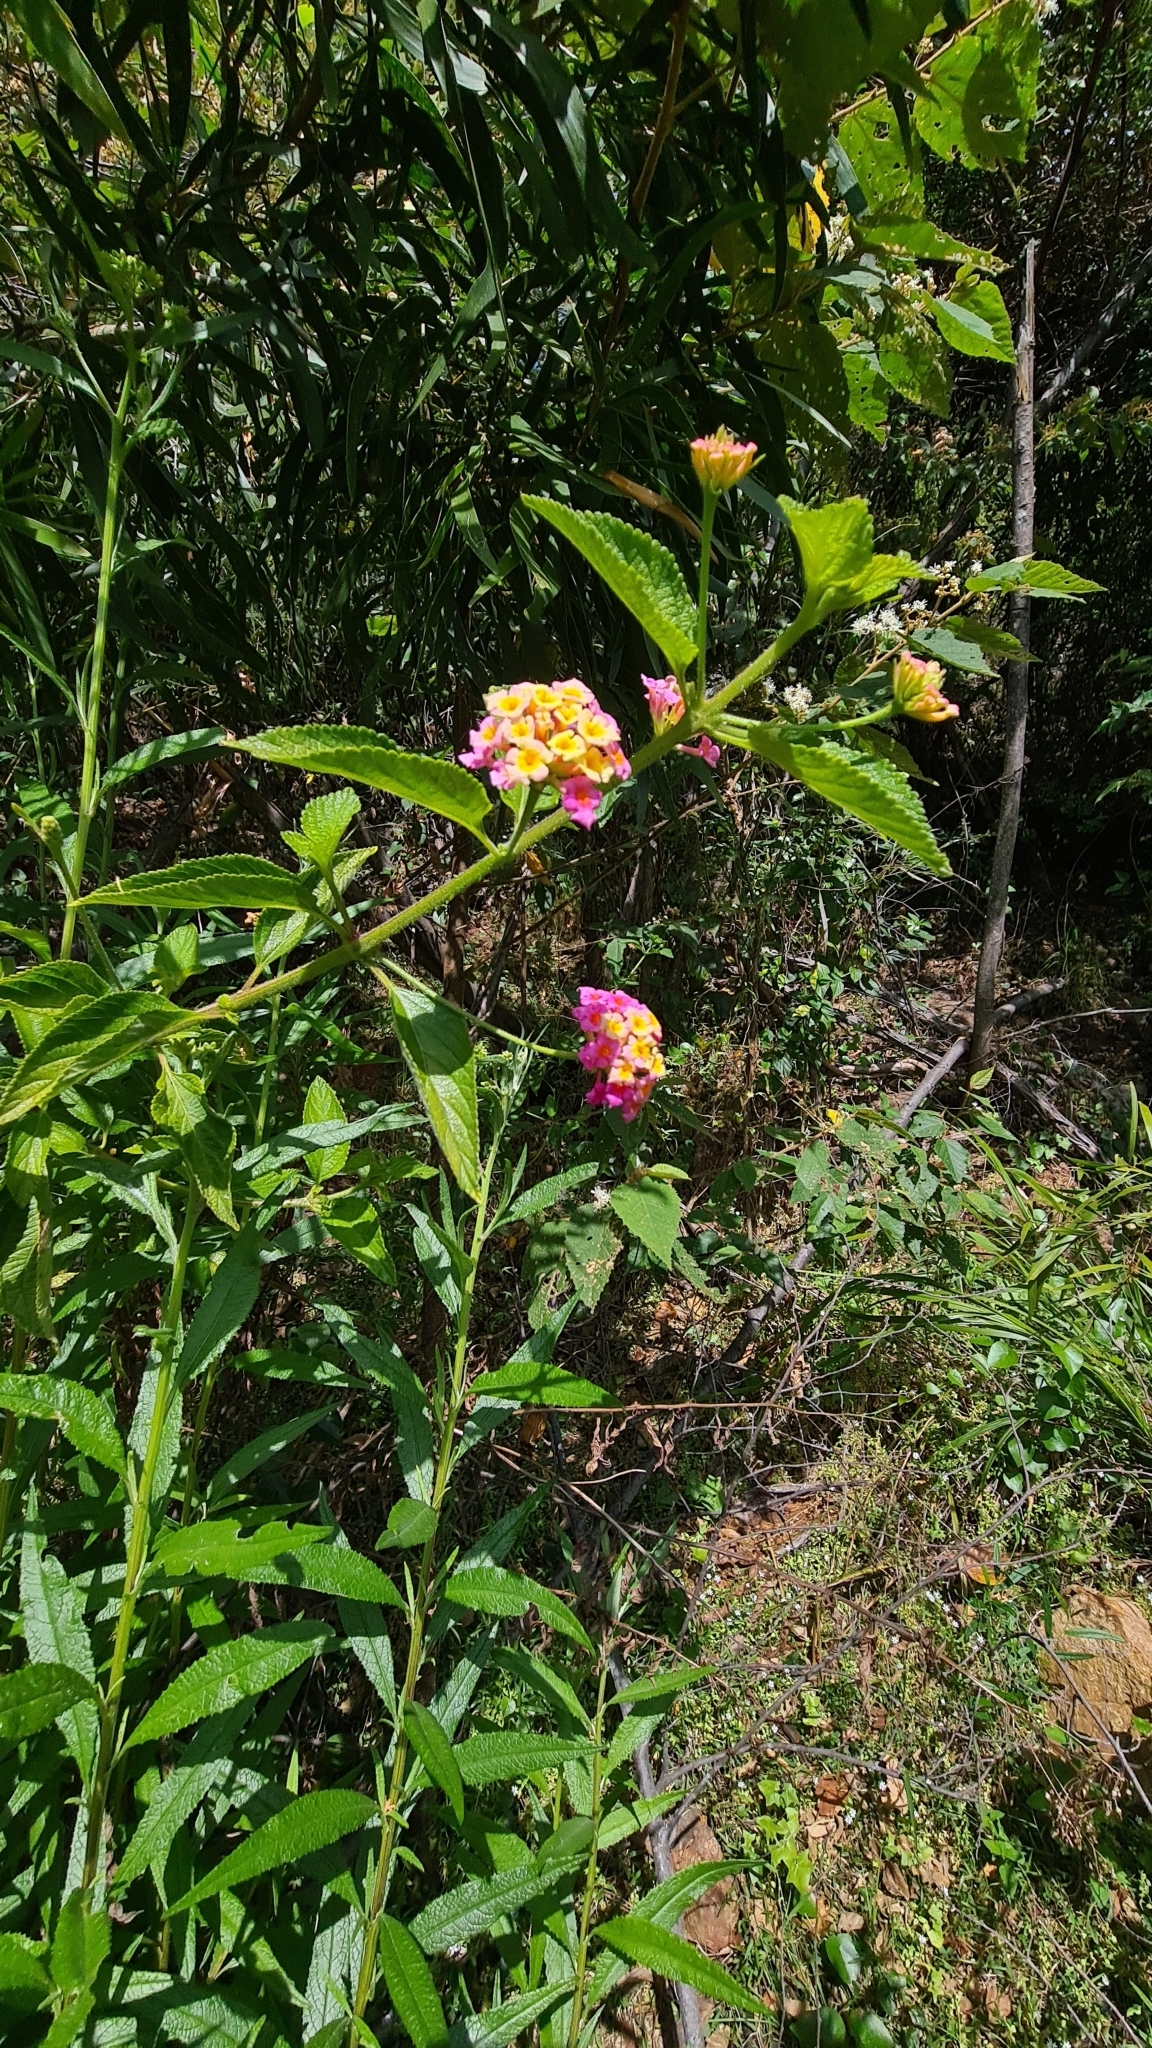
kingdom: Plantae
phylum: Tracheophyta
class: Magnoliopsida
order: Lamiales
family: Verbenaceae
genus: Lantana
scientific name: Lantana camara
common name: Lantana
